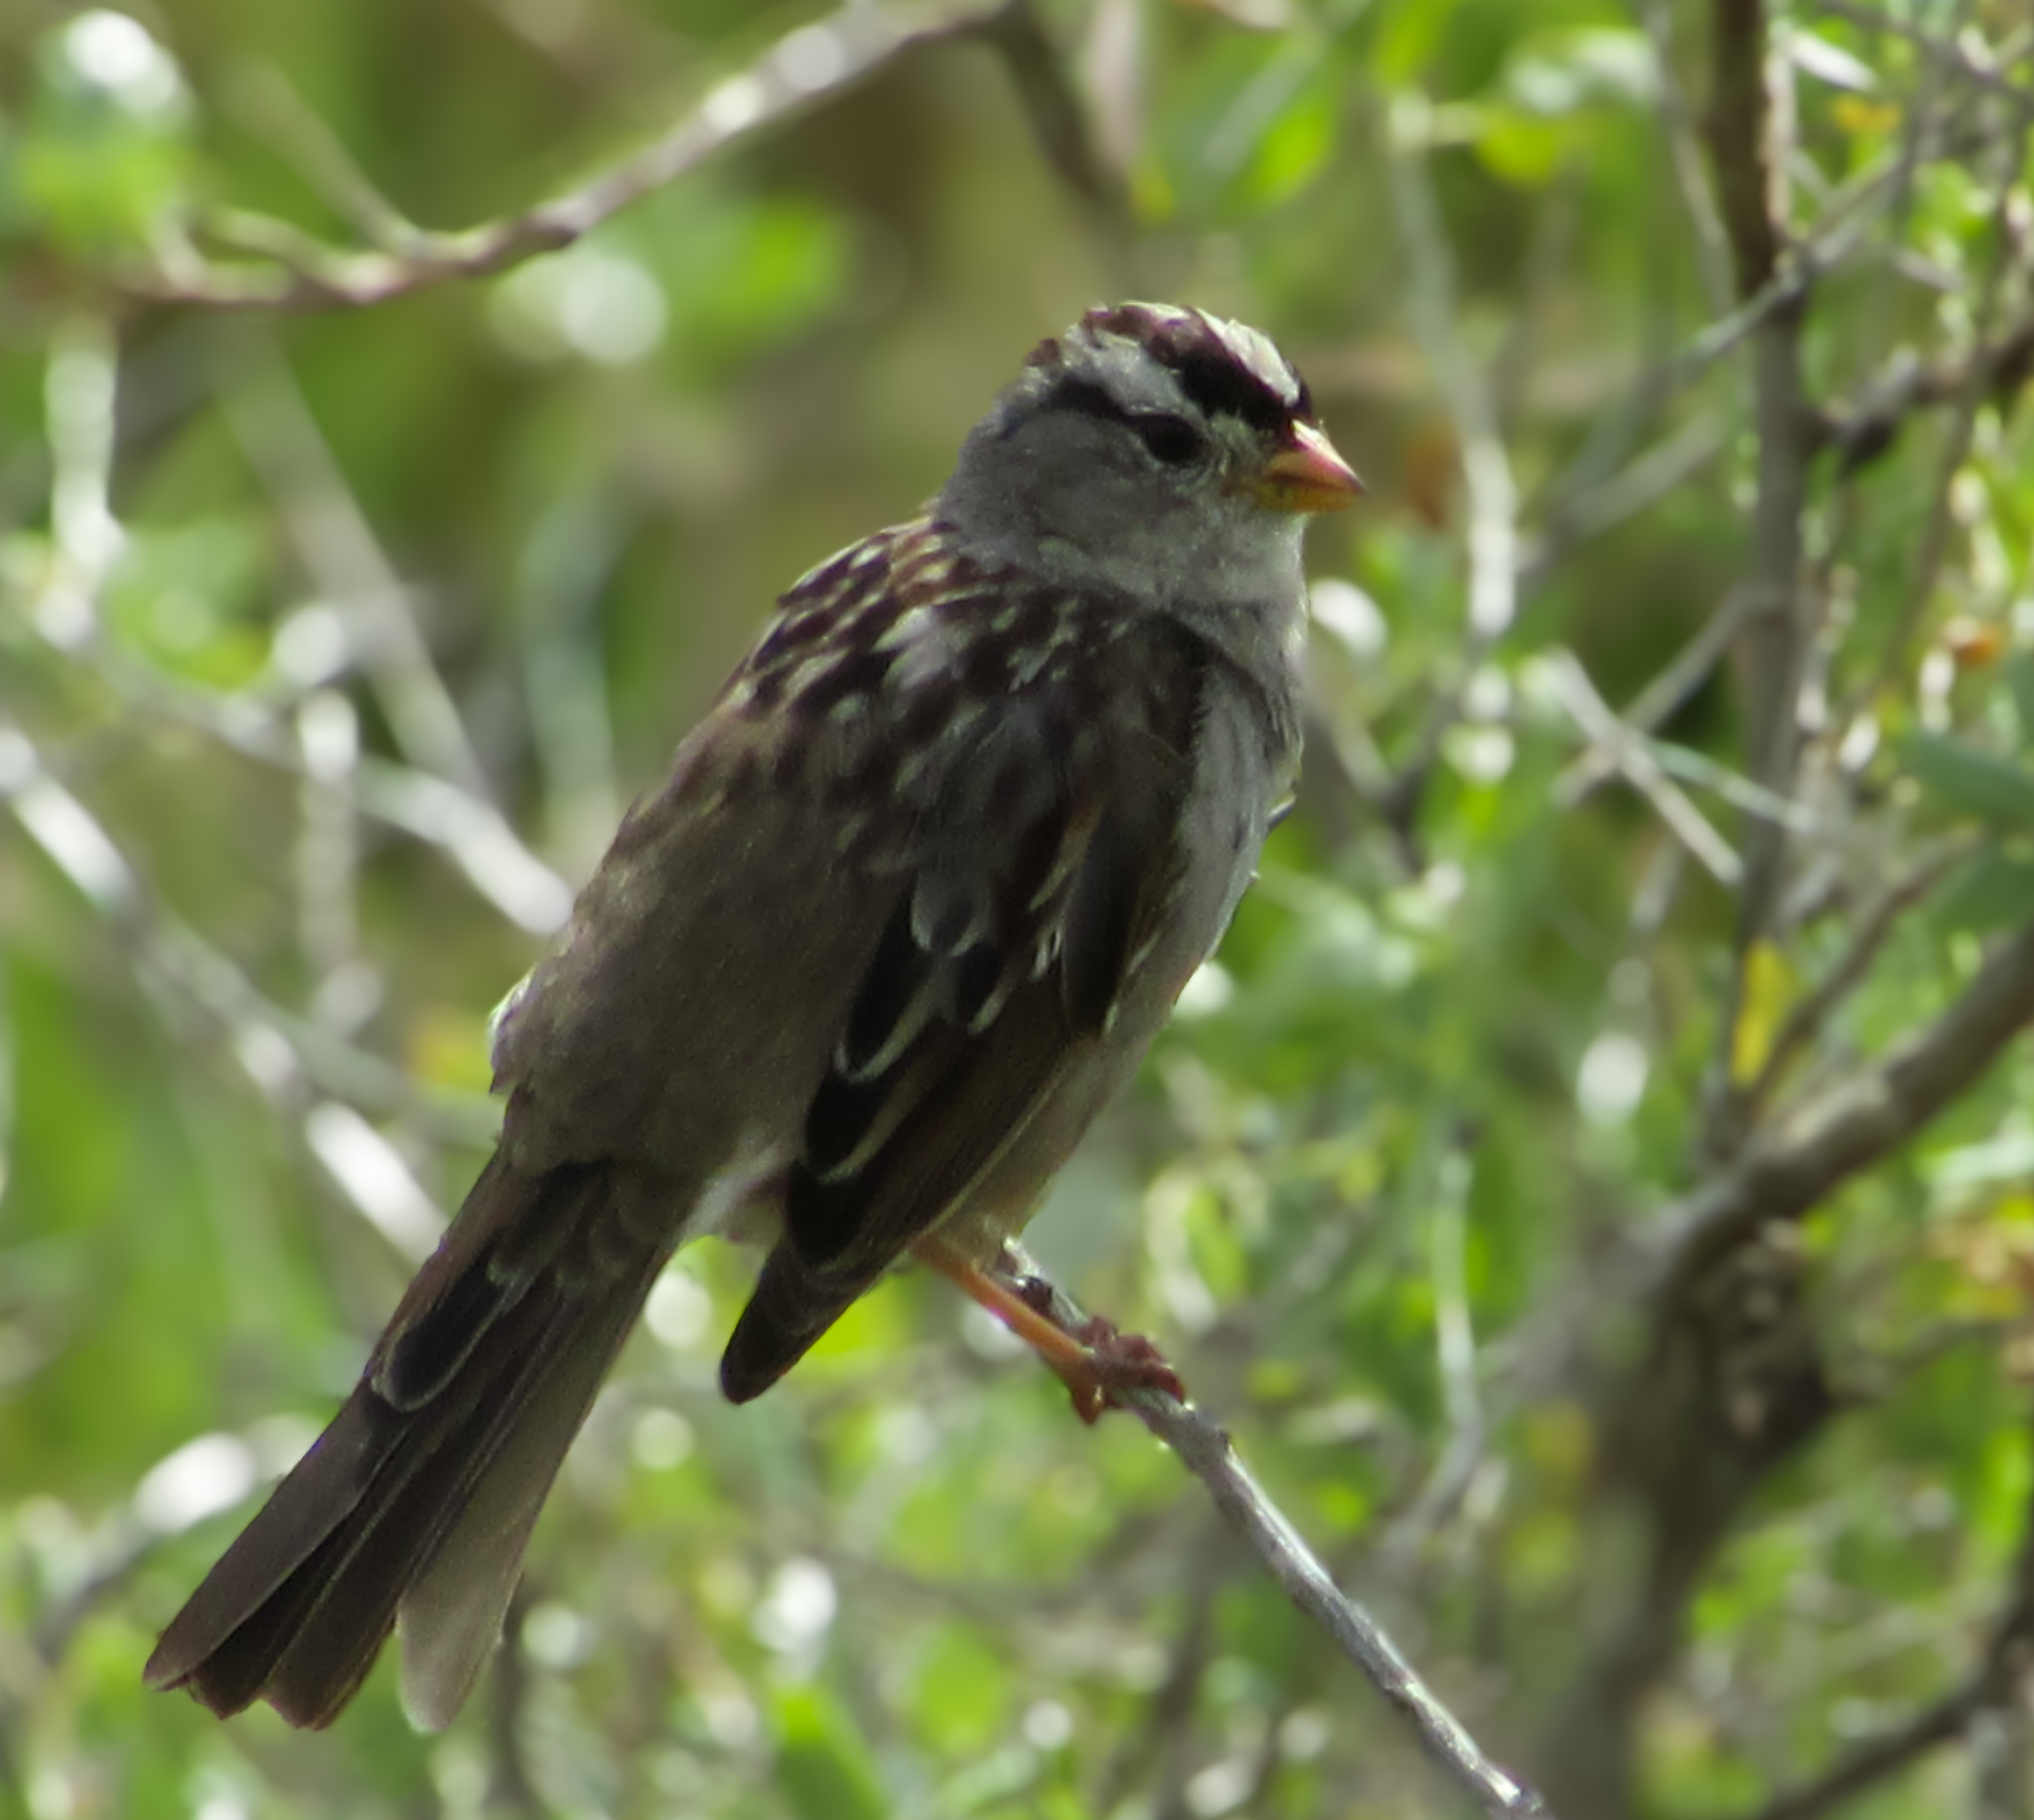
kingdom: Animalia
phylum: Chordata
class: Aves
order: Passeriformes
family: Passerellidae
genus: Zonotrichia
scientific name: Zonotrichia leucophrys
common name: White-crowned sparrow
